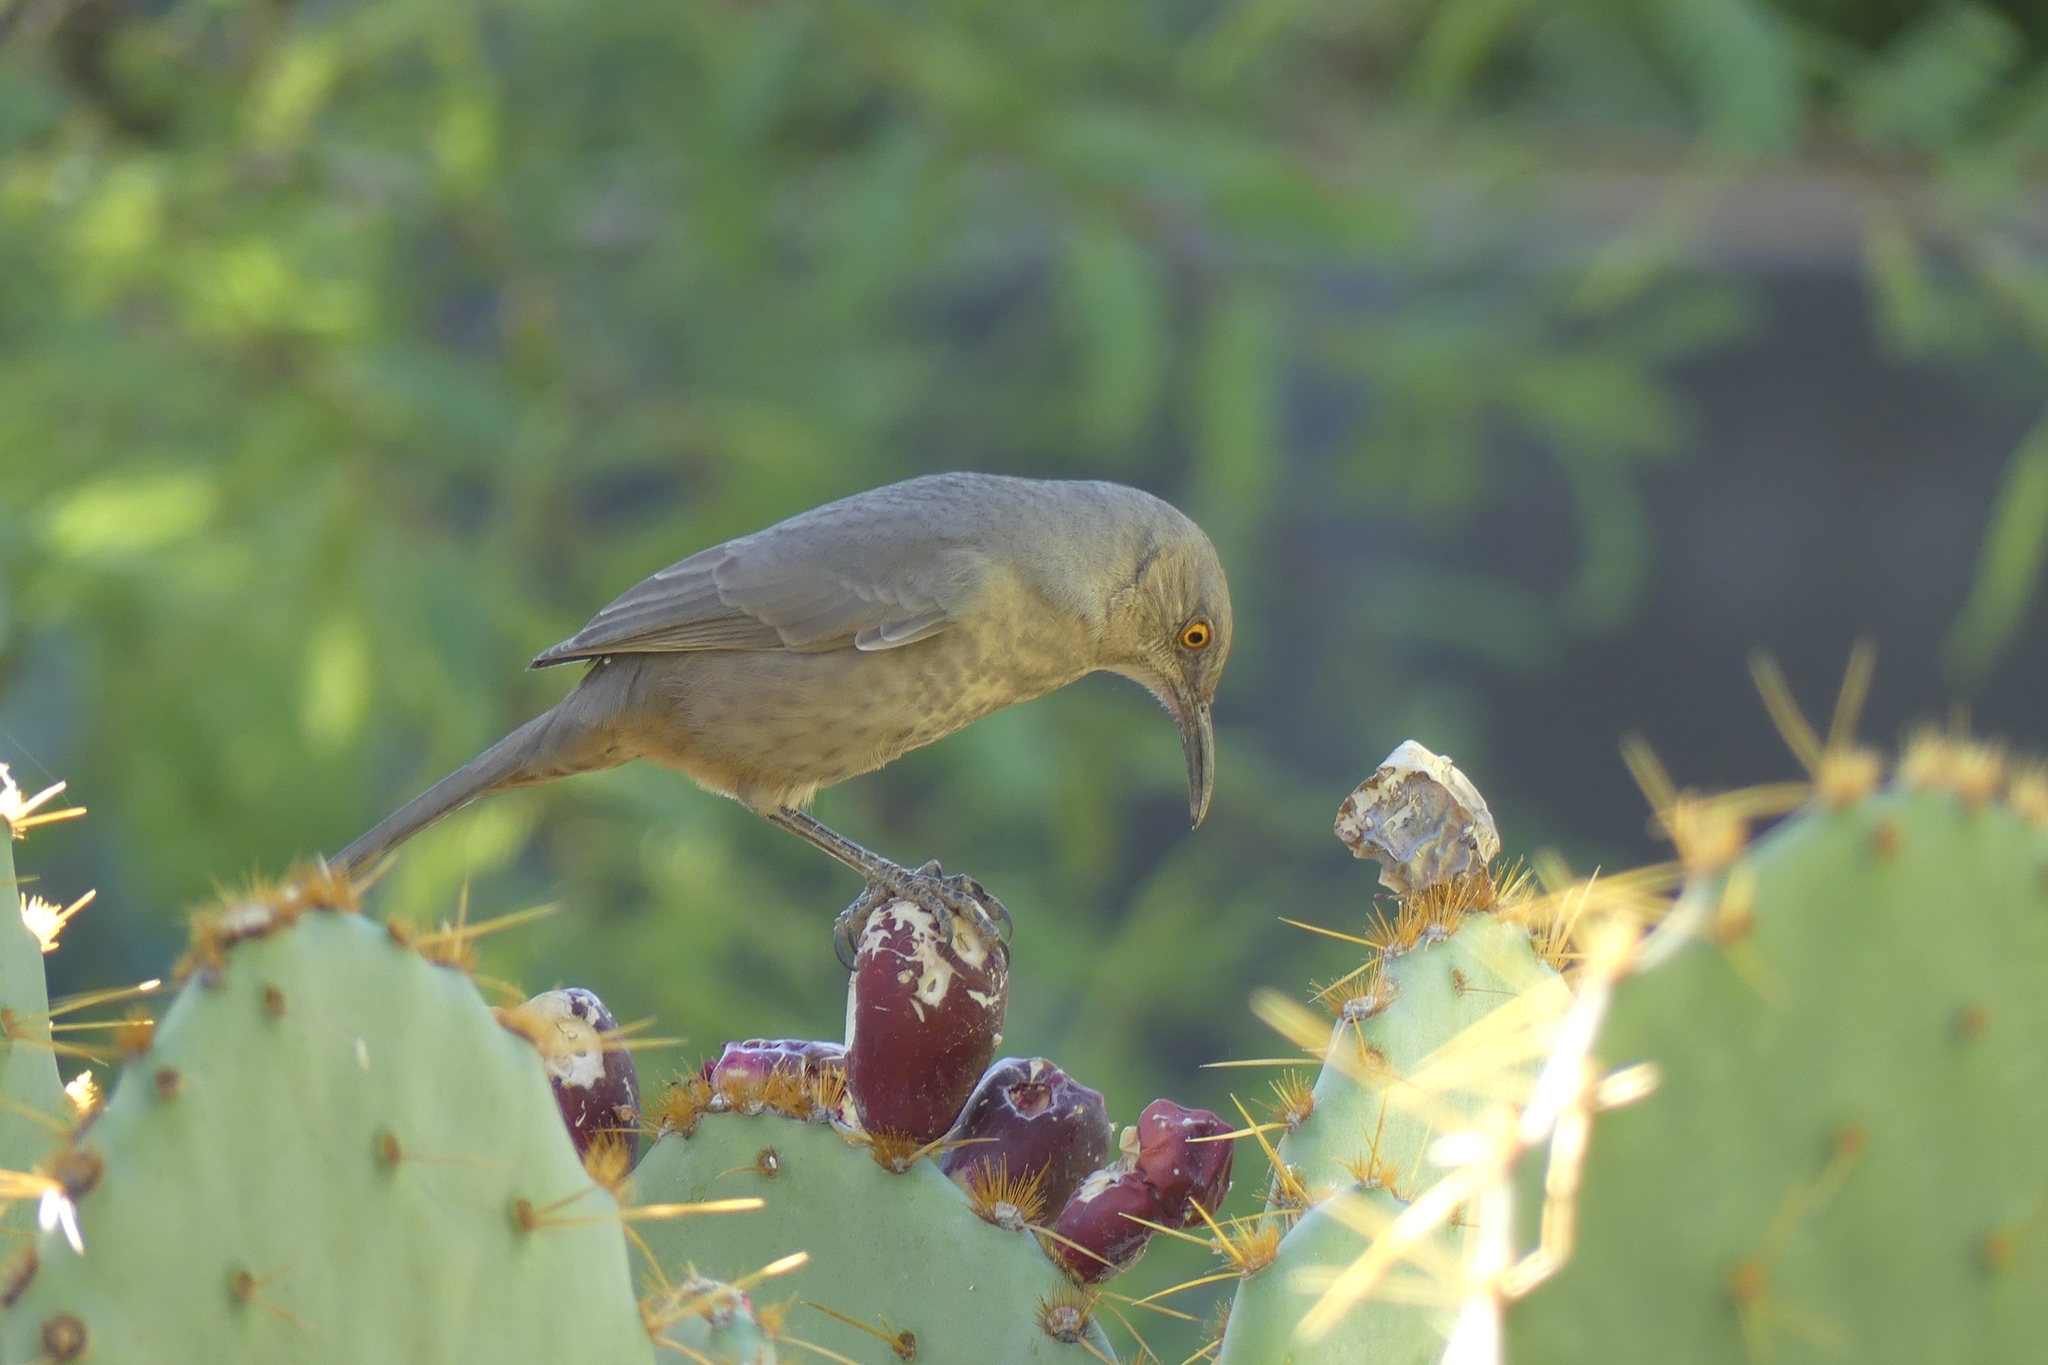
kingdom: Animalia
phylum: Chordata
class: Aves
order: Passeriformes
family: Mimidae
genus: Toxostoma
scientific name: Toxostoma curvirostre
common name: Curve-billed thrasher
